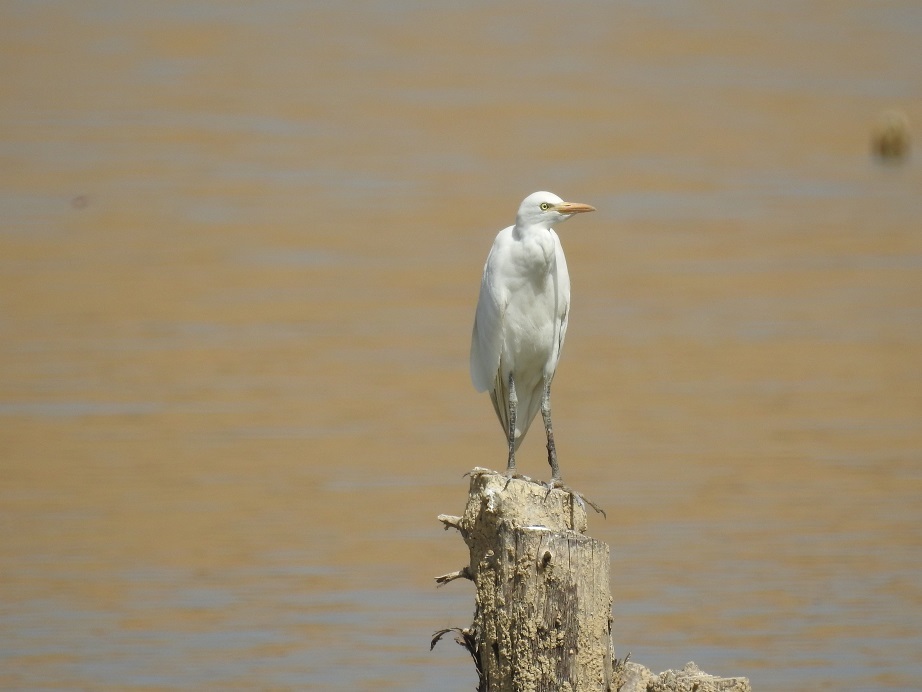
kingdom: Animalia
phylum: Chordata
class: Aves
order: Pelecaniformes
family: Ardeidae
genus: Bubulcus
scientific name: Bubulcus ibis
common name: Cattle egret
